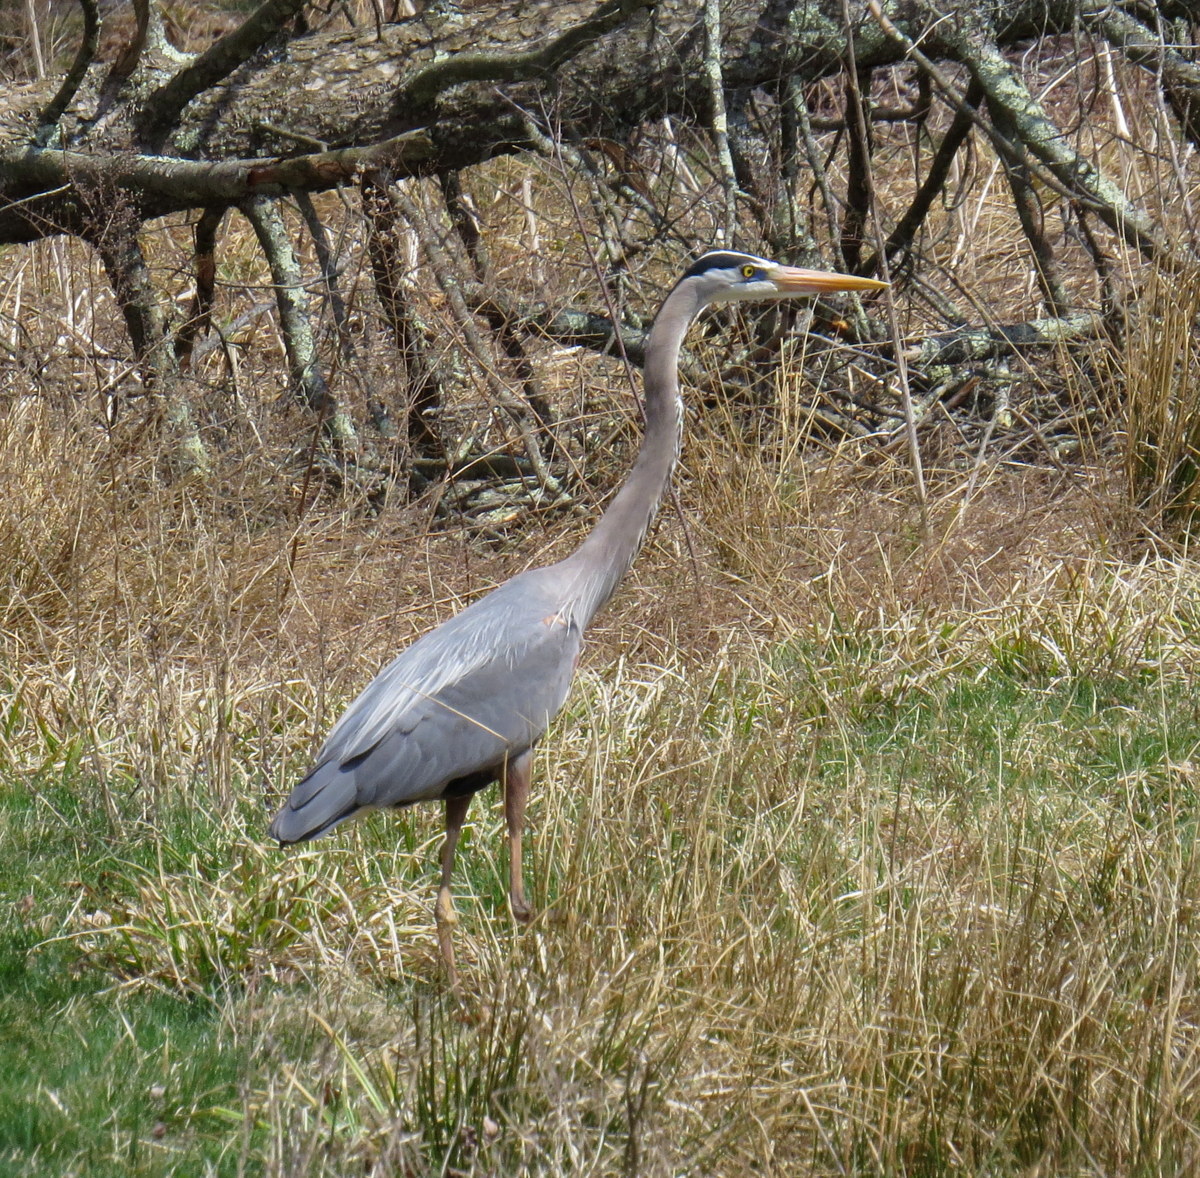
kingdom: Animalia
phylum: Chordata
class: Aves
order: Pelecaniformes
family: Ardeidae
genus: Ardea
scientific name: Ardea herodias
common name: Great blue heron
